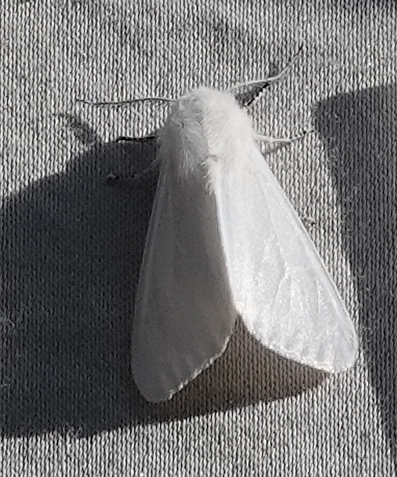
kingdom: Animalia
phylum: Arthropoda
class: Insecta
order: Lepidoptera
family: Erebidae
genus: Hyphantria
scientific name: Hyphantria cunea
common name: American white moth
